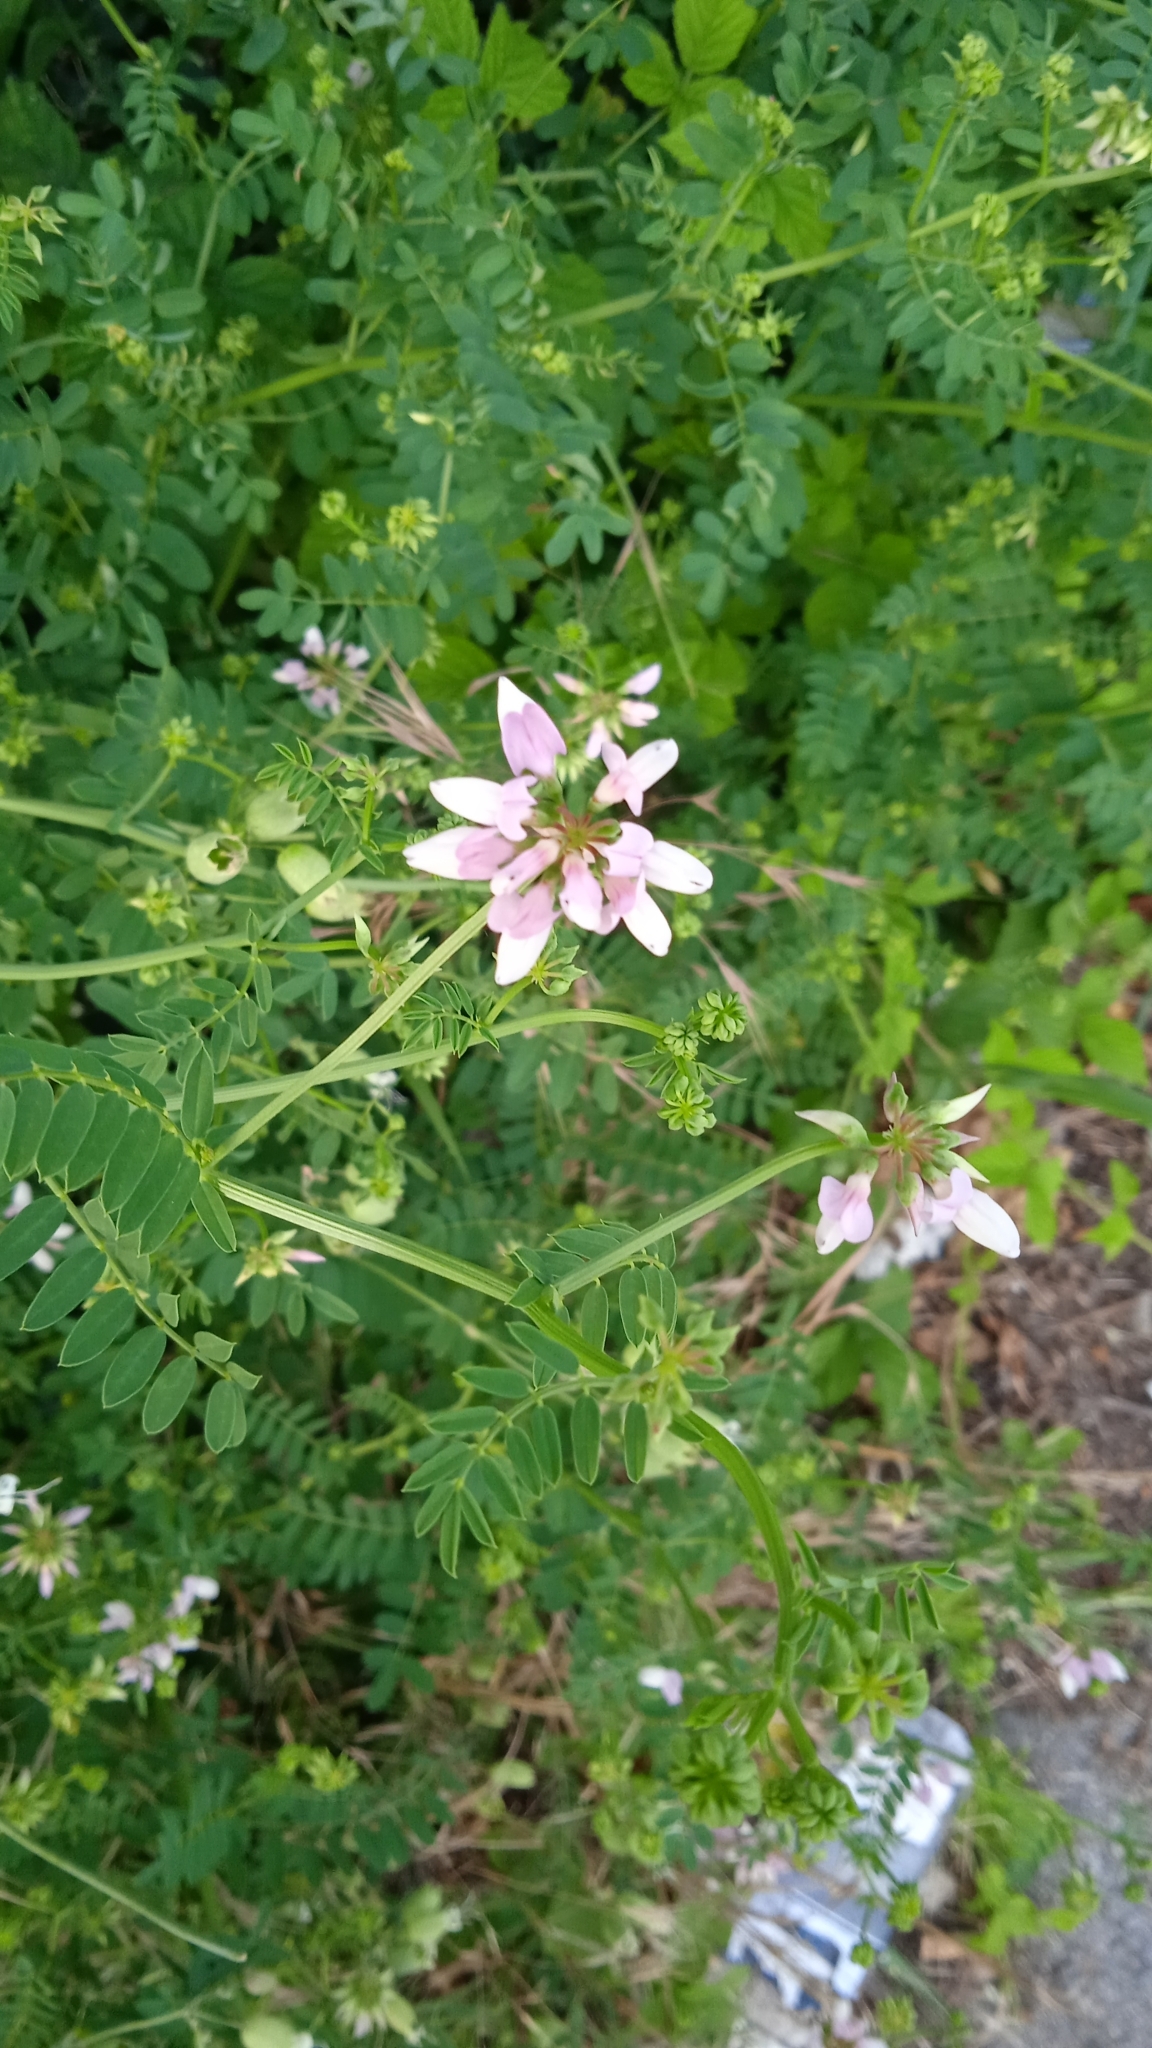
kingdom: Plantae
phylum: Tracheophyta
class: Magnoliopsida
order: Fabales
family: Fabaceae
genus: Coronilla
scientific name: Coronilla varia
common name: Crownvetch
